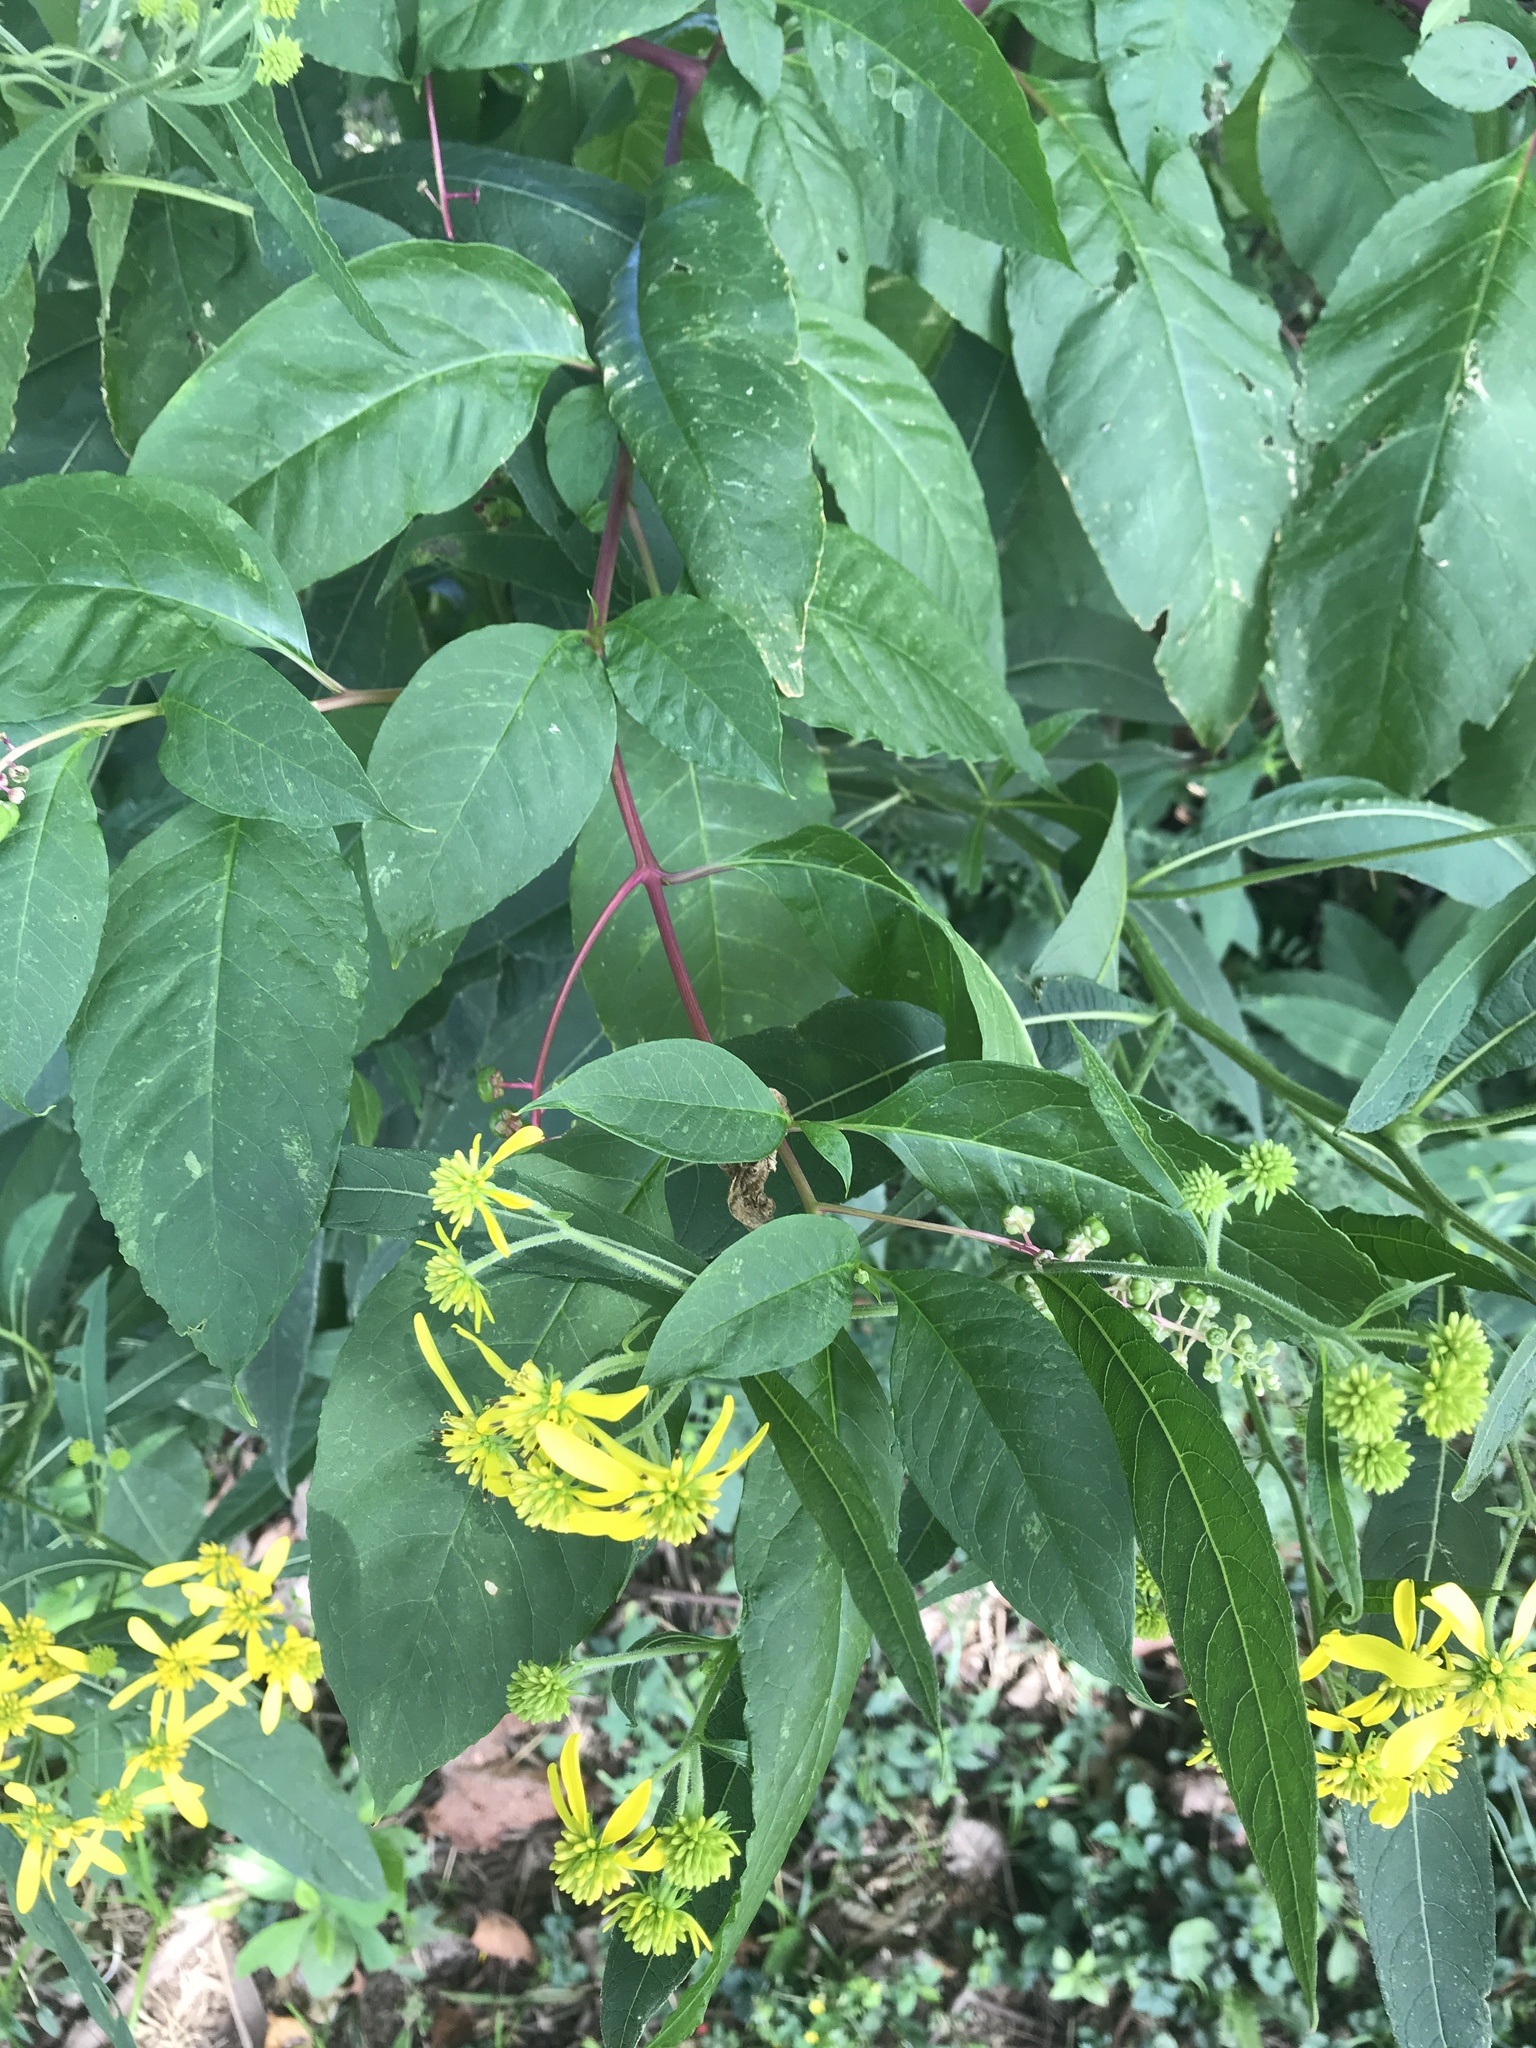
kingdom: Plantae
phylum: Tracheophyta
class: Magnoliopsida
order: Asterales
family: Asteraceae
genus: Verbesina
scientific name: Verbesina alternifolia
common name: Wingstem
